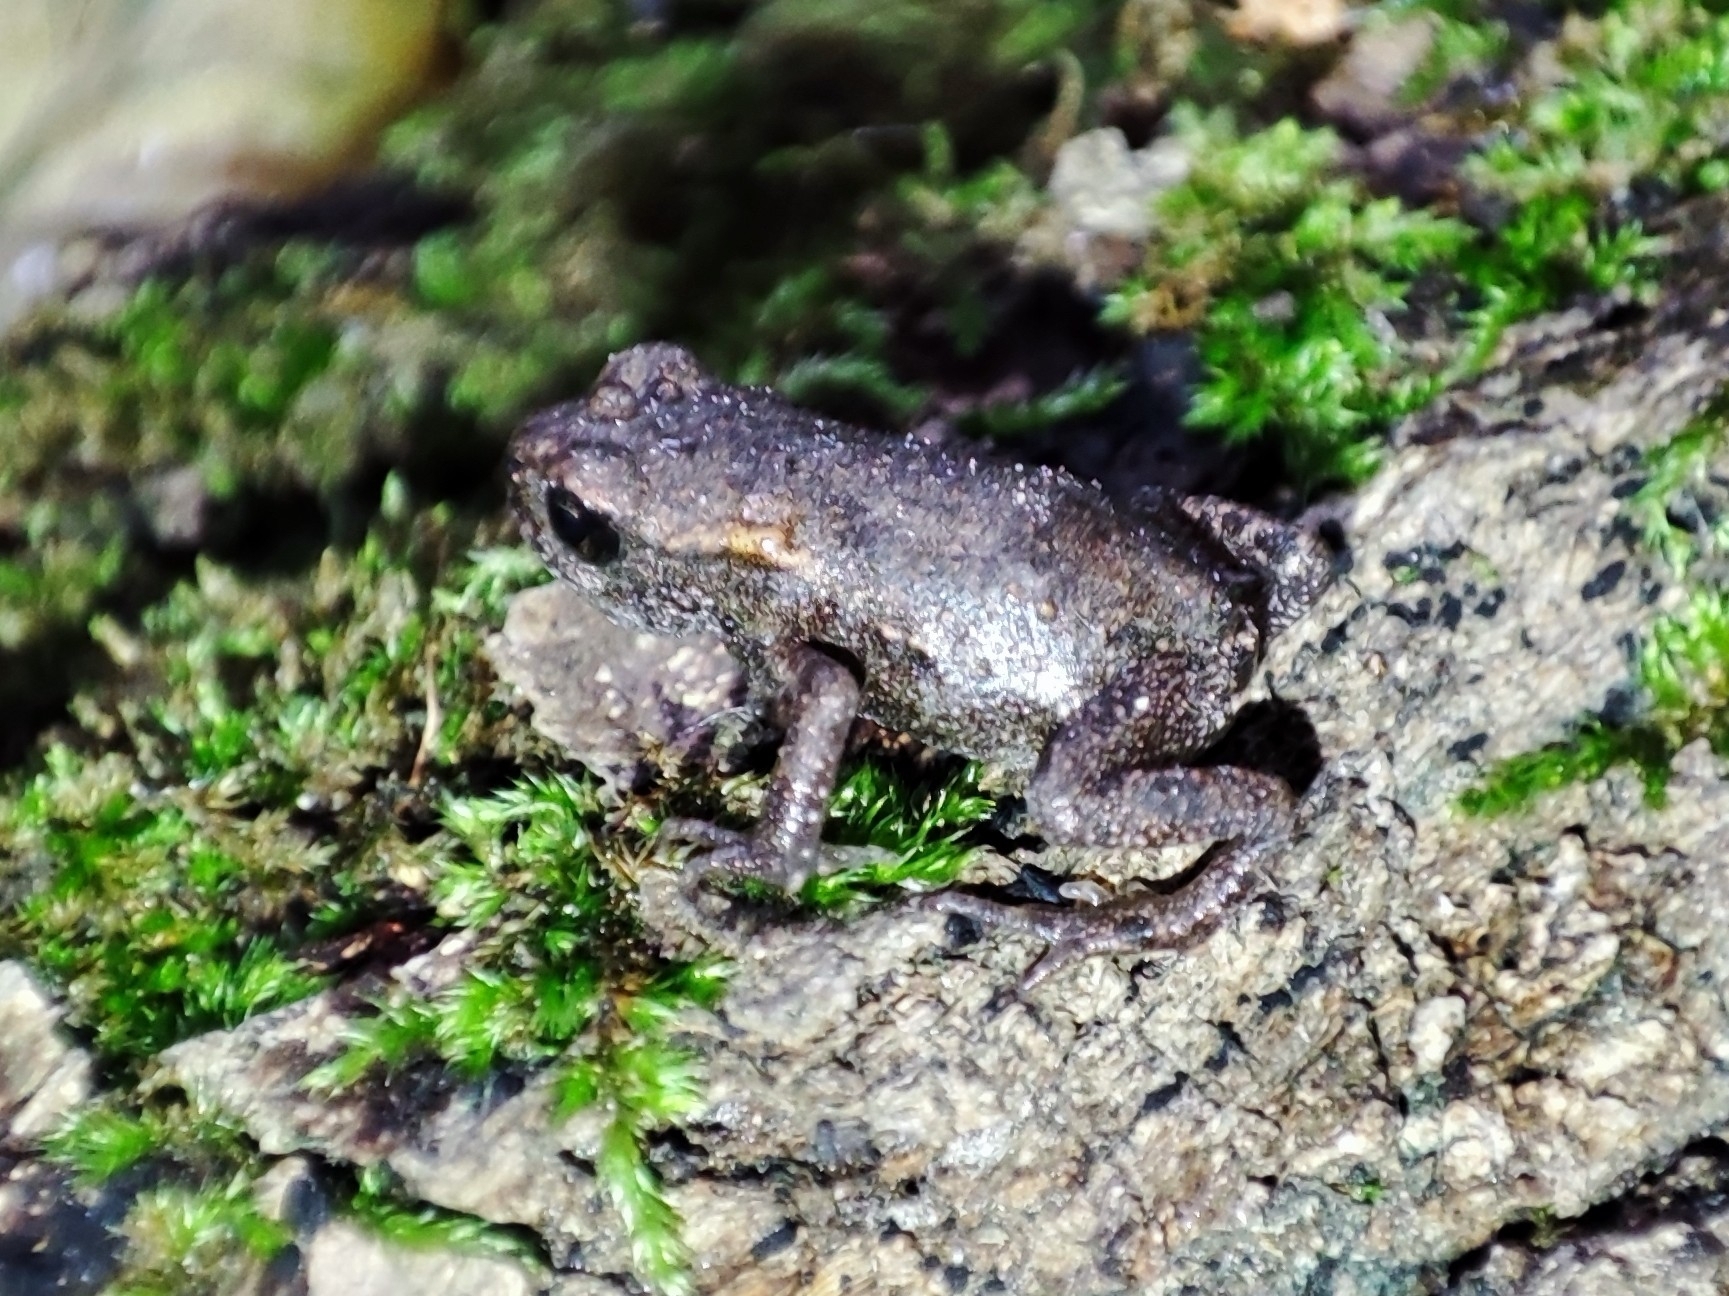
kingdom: Animalia
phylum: Chordata
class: Amphibia
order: Anura
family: Bufonidae
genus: Bufo
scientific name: Bufo bufo
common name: Common toad
